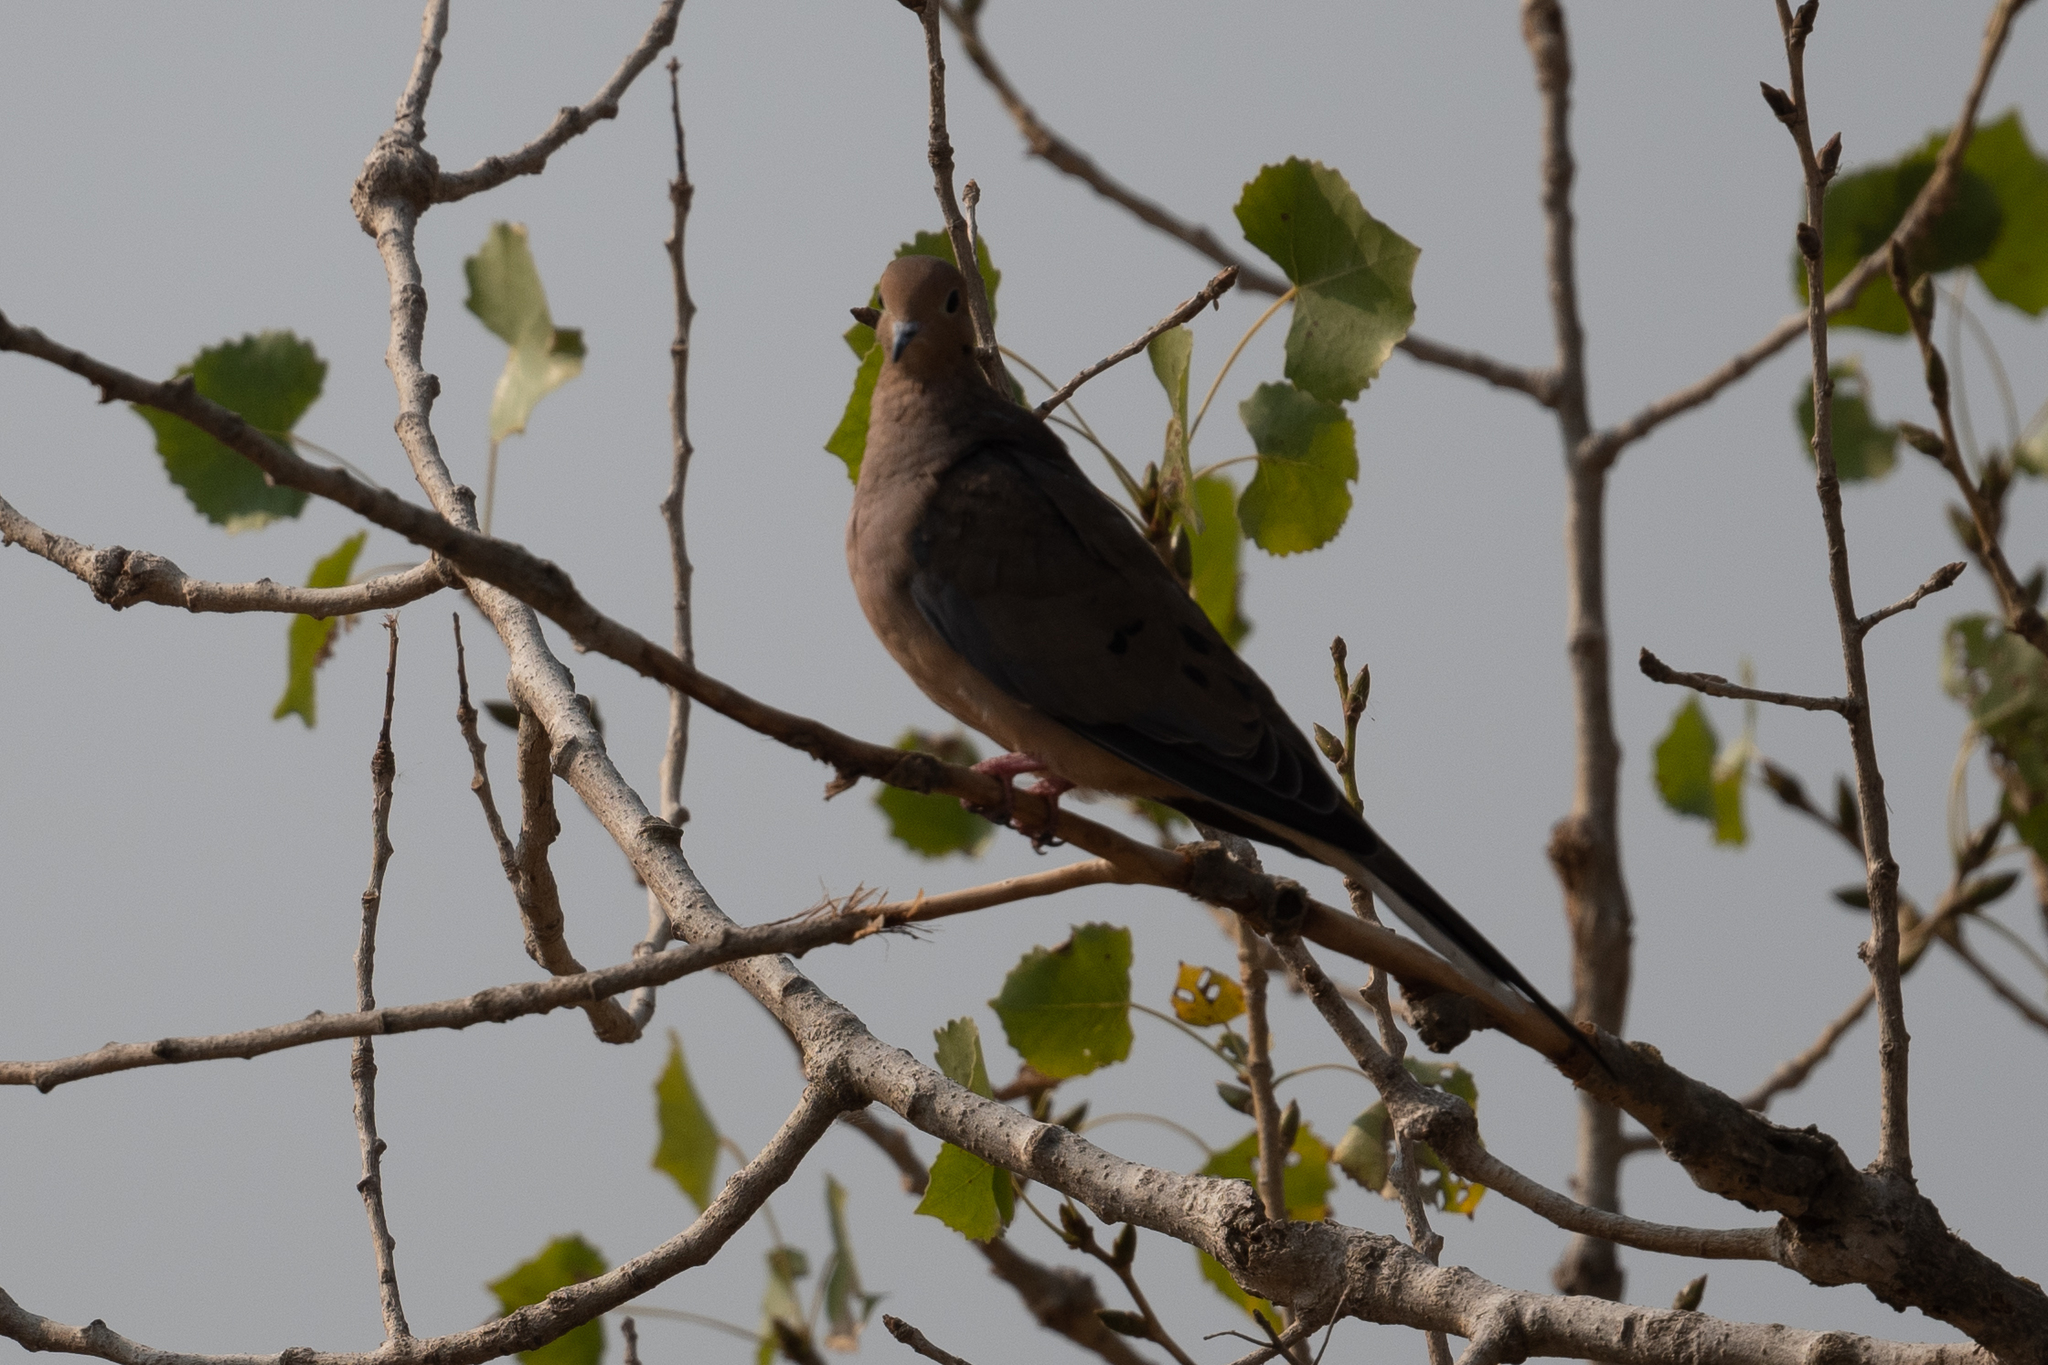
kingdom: Animalia
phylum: Chordata
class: Aves
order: Columbiformes
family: Columbidae
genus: Zenaida
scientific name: Zenaida macroura
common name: Mourning dove
